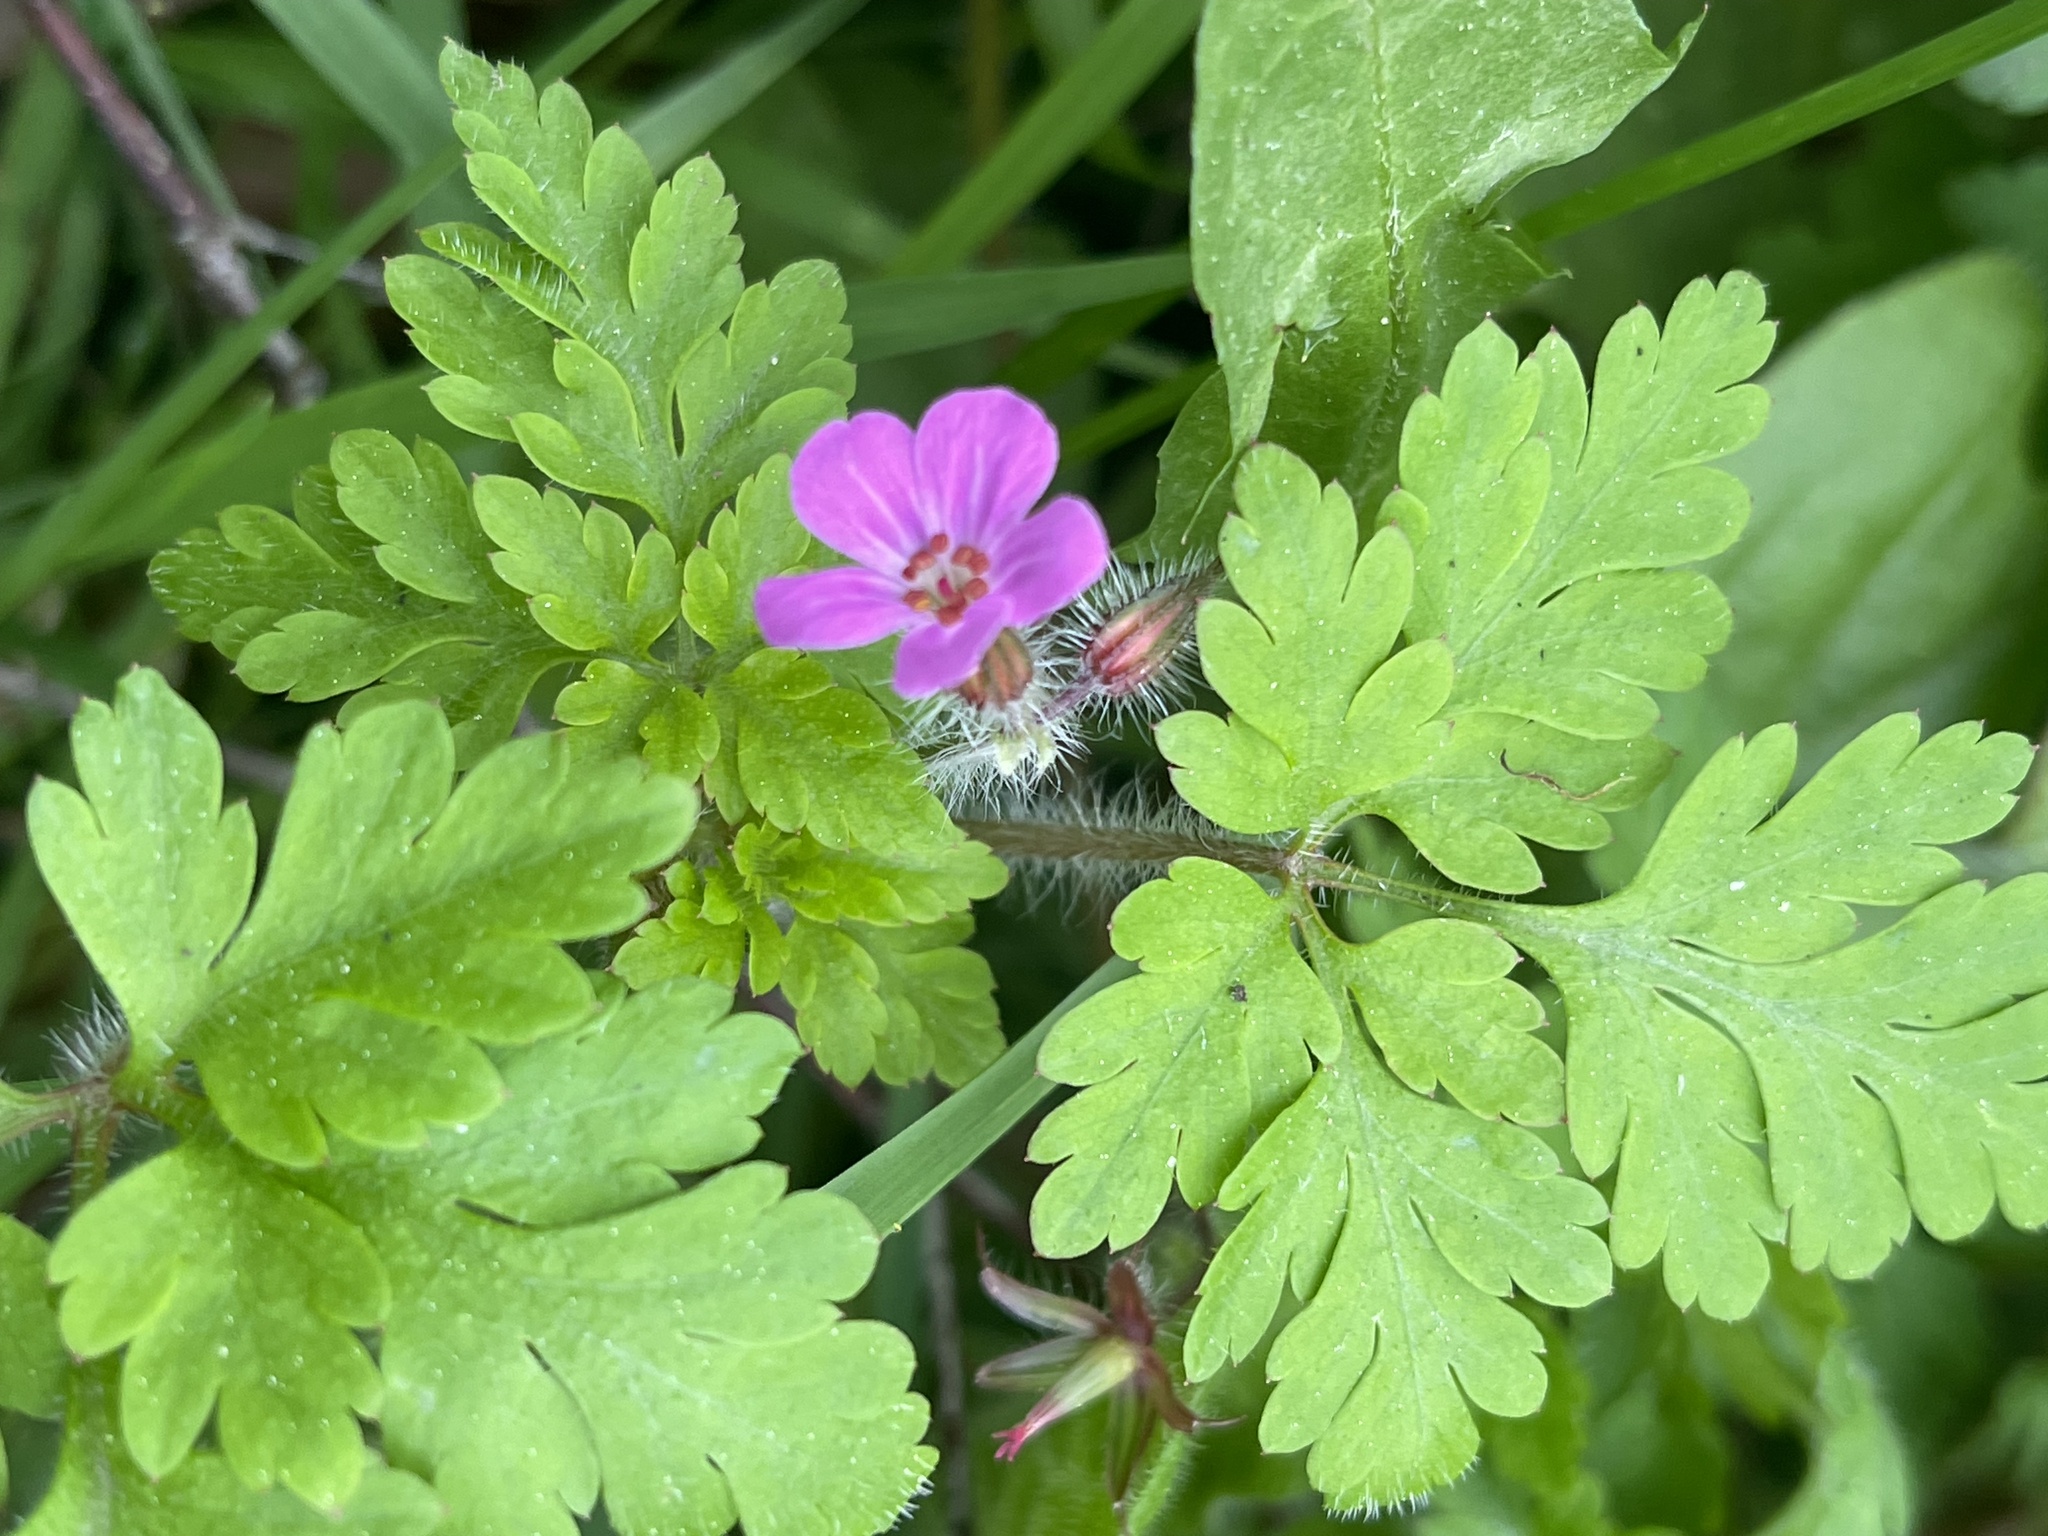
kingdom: Plantae
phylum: Tracheophyta
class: Magnoliopsida
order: Geraniales
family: Geraniaceae
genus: Geranium
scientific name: Geranium robertianum
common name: Herb-robert
